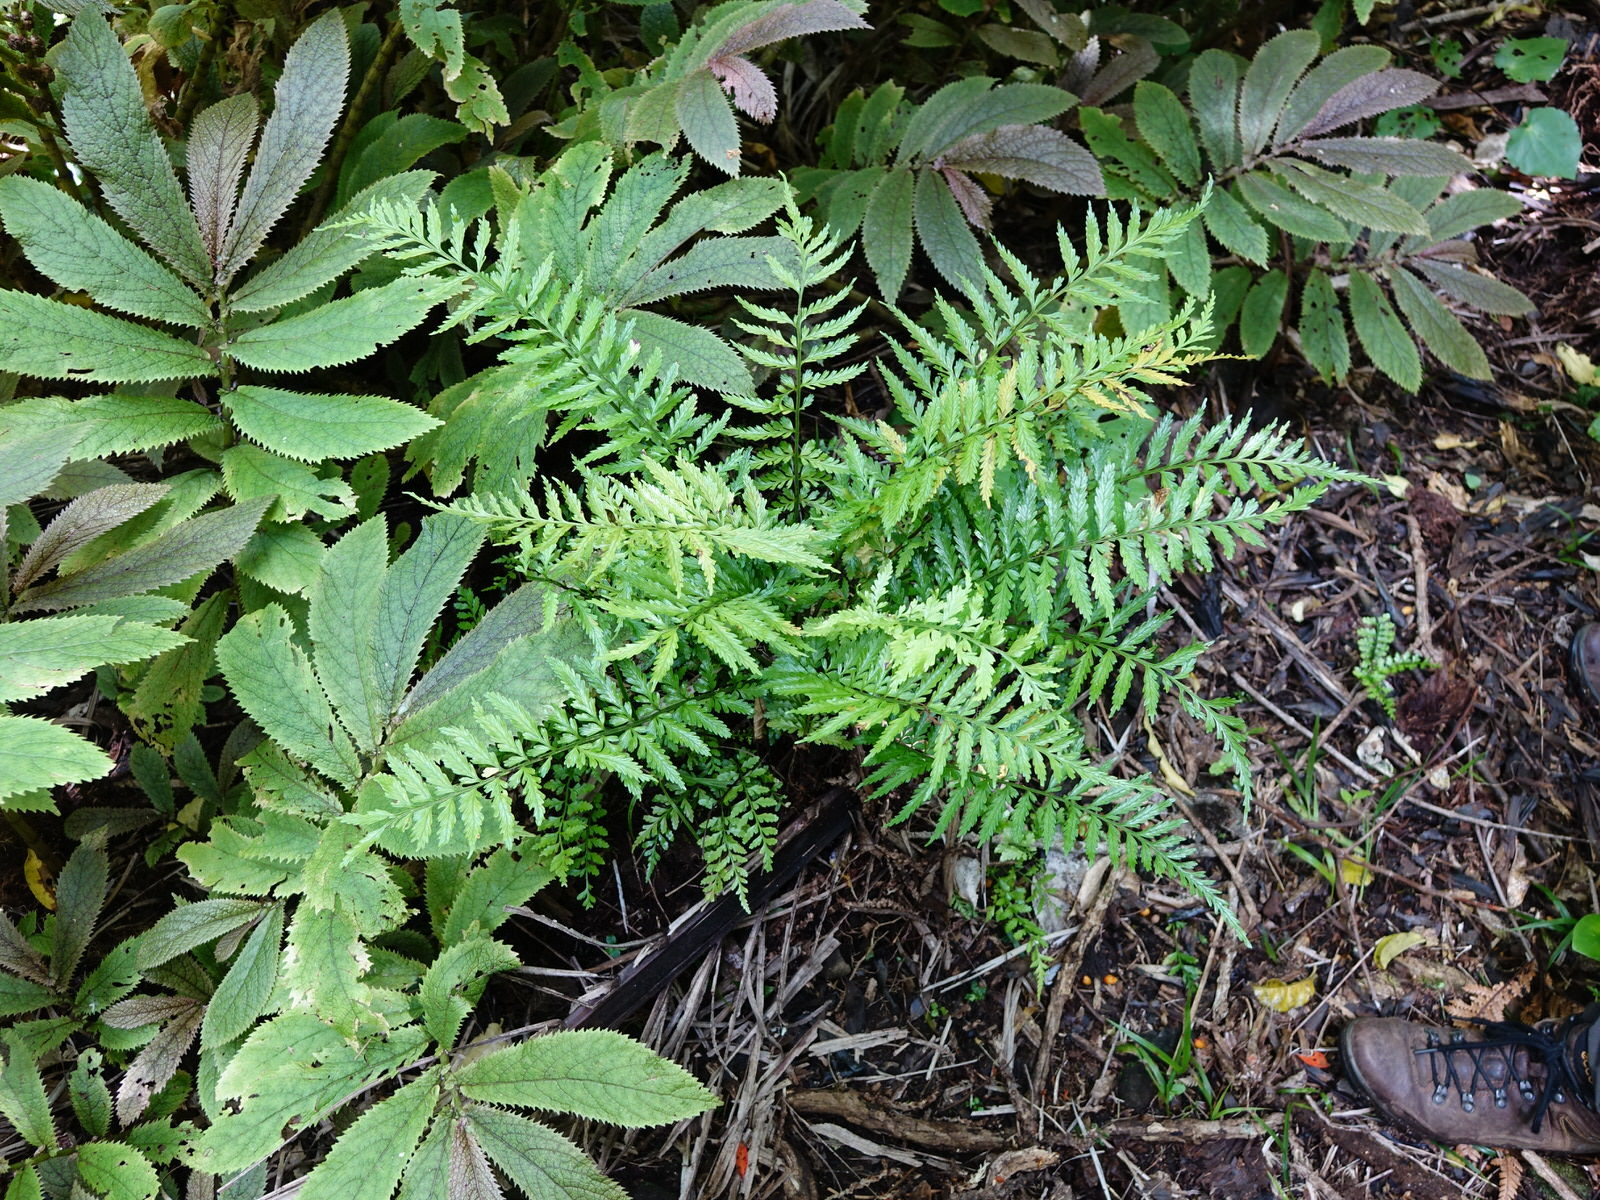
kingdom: Plantae
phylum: Tracheophyta
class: Polypodiopsida
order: Polypodiales
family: Aspleniaceae
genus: Asplenium
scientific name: Asplenium lamprophyllum
